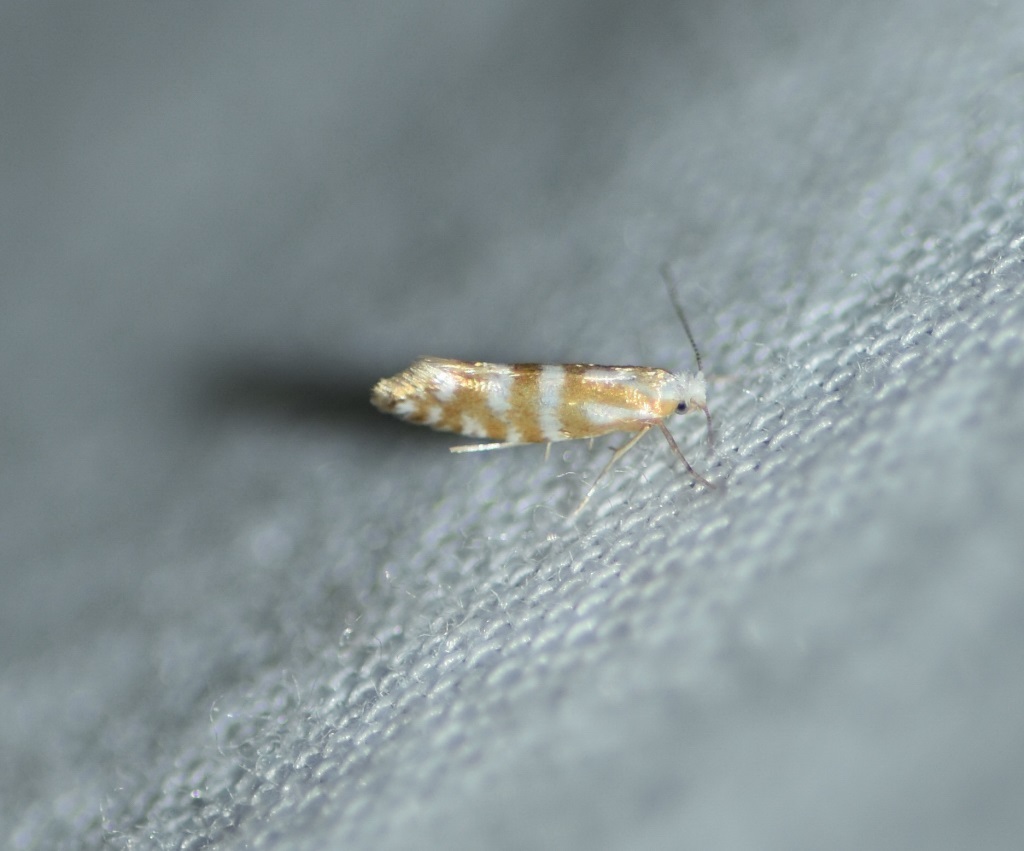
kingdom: Animalia
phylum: Arthropoda
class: Insecta
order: Lepidoptera
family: Argyresthiidae
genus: Argyresthia
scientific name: Argyresthia aureoargentella
